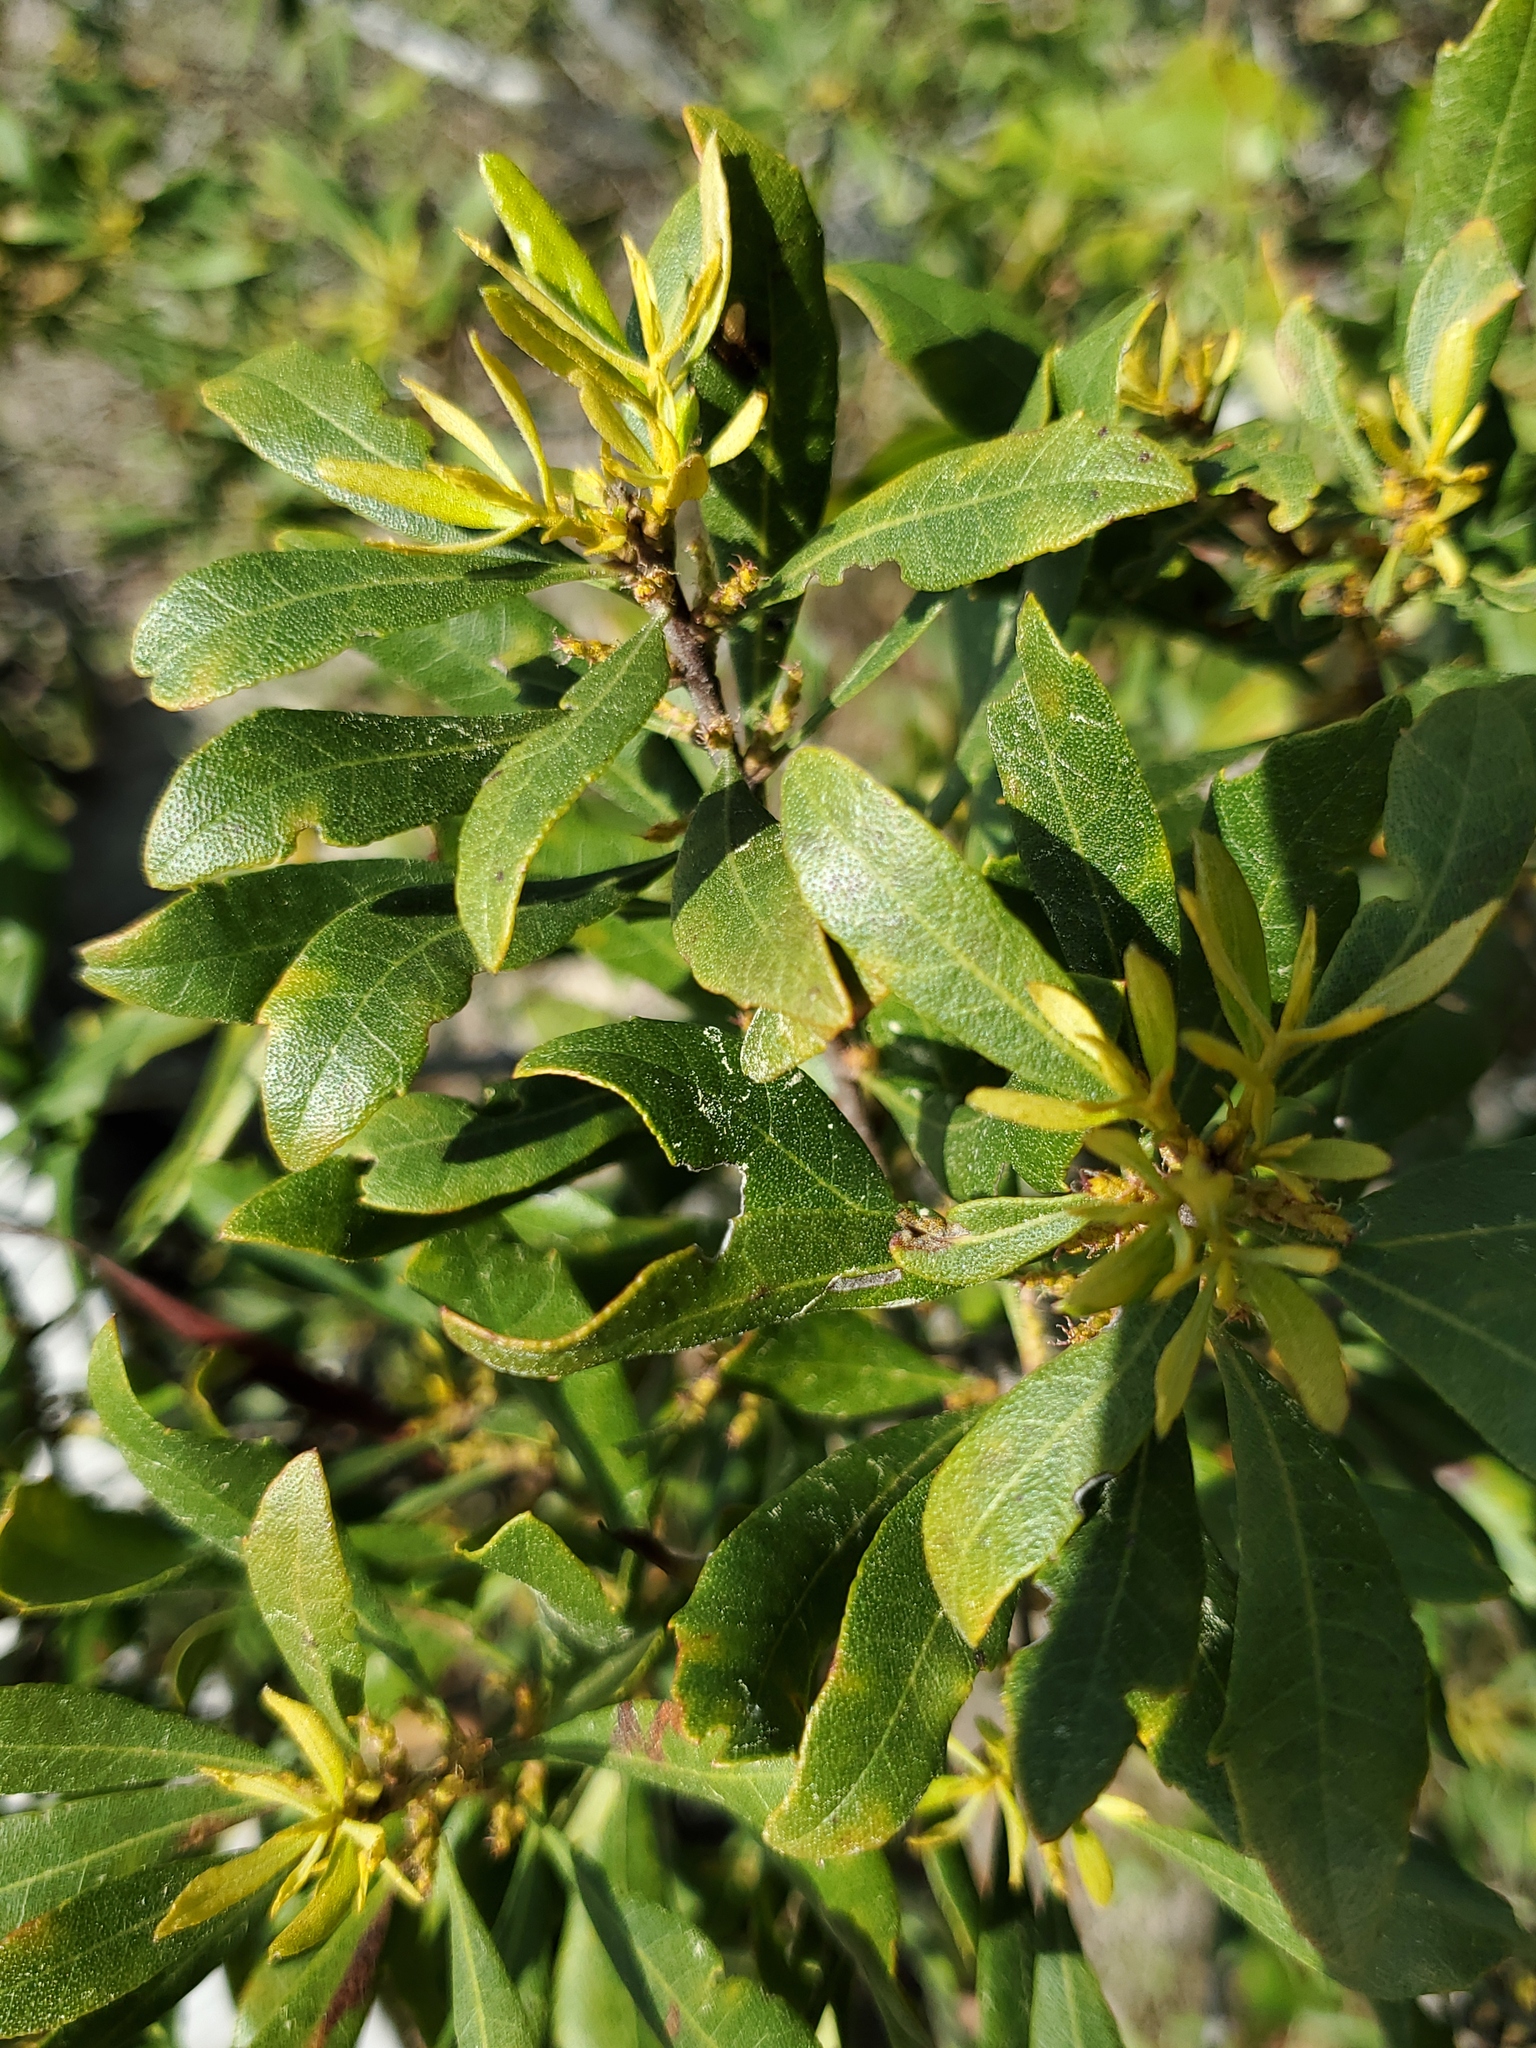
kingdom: Plantae
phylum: Tracheophyta
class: Magnoliopsida
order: Fagales
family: Myricaceae
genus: Morella
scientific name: Morella cerifera
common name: Wax myrtle
